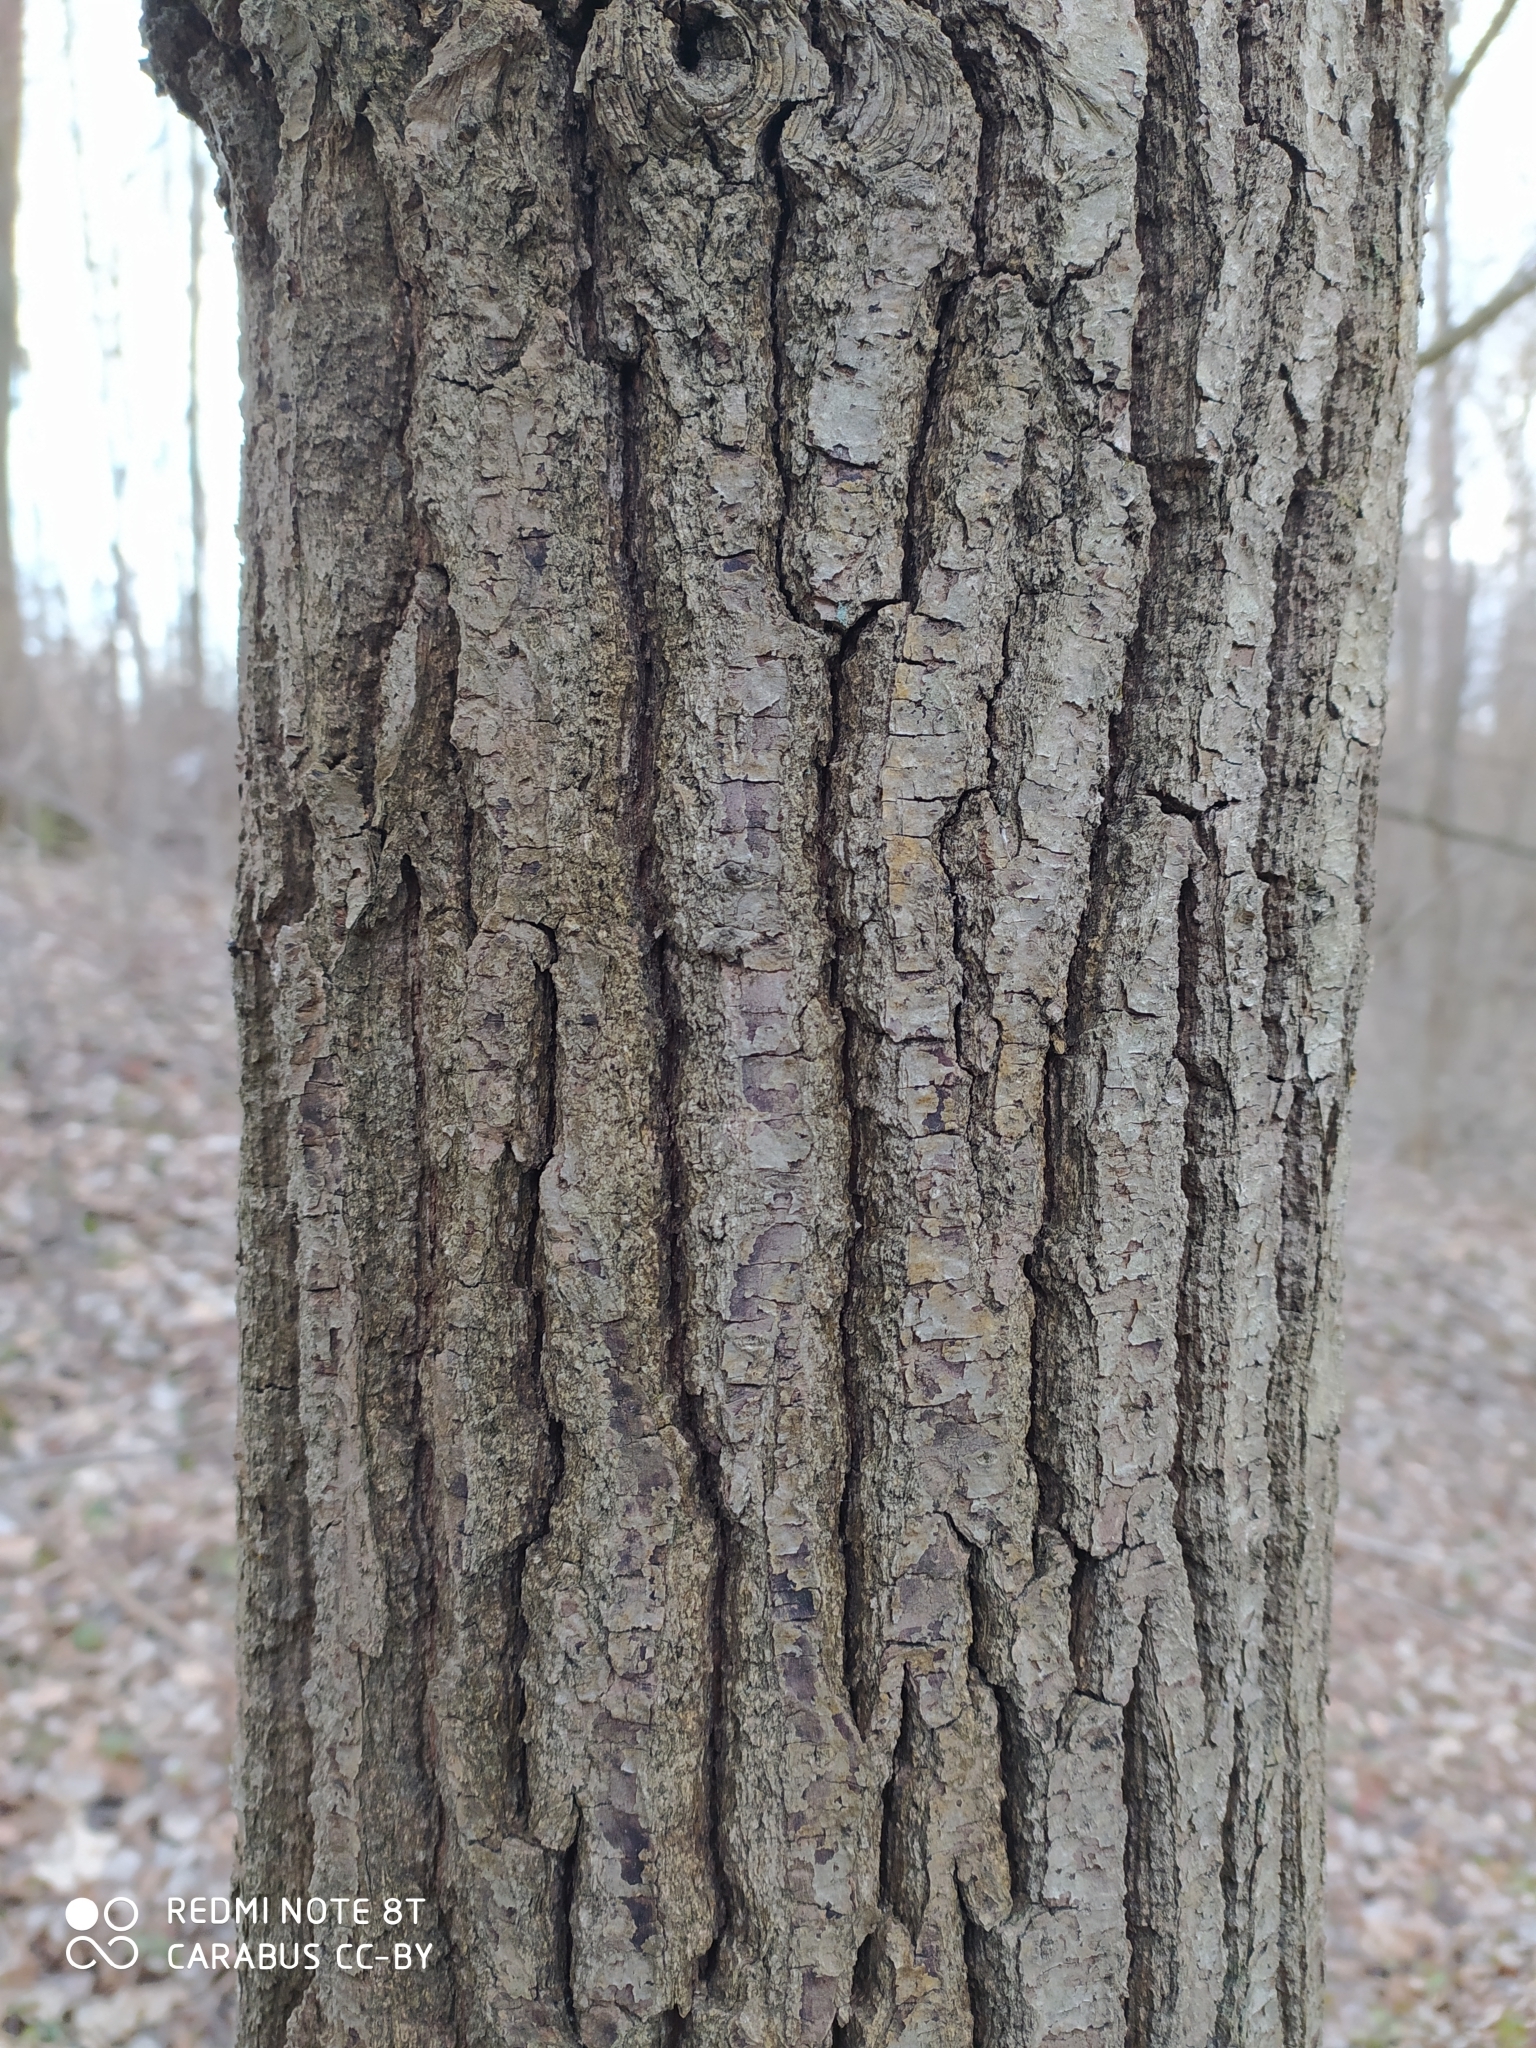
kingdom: Plantae
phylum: Tracheophyta
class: Magnoliopsida
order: Fagales
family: Fagaceae
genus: Quercus
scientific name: Quercus robur
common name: Pedunculate oak
